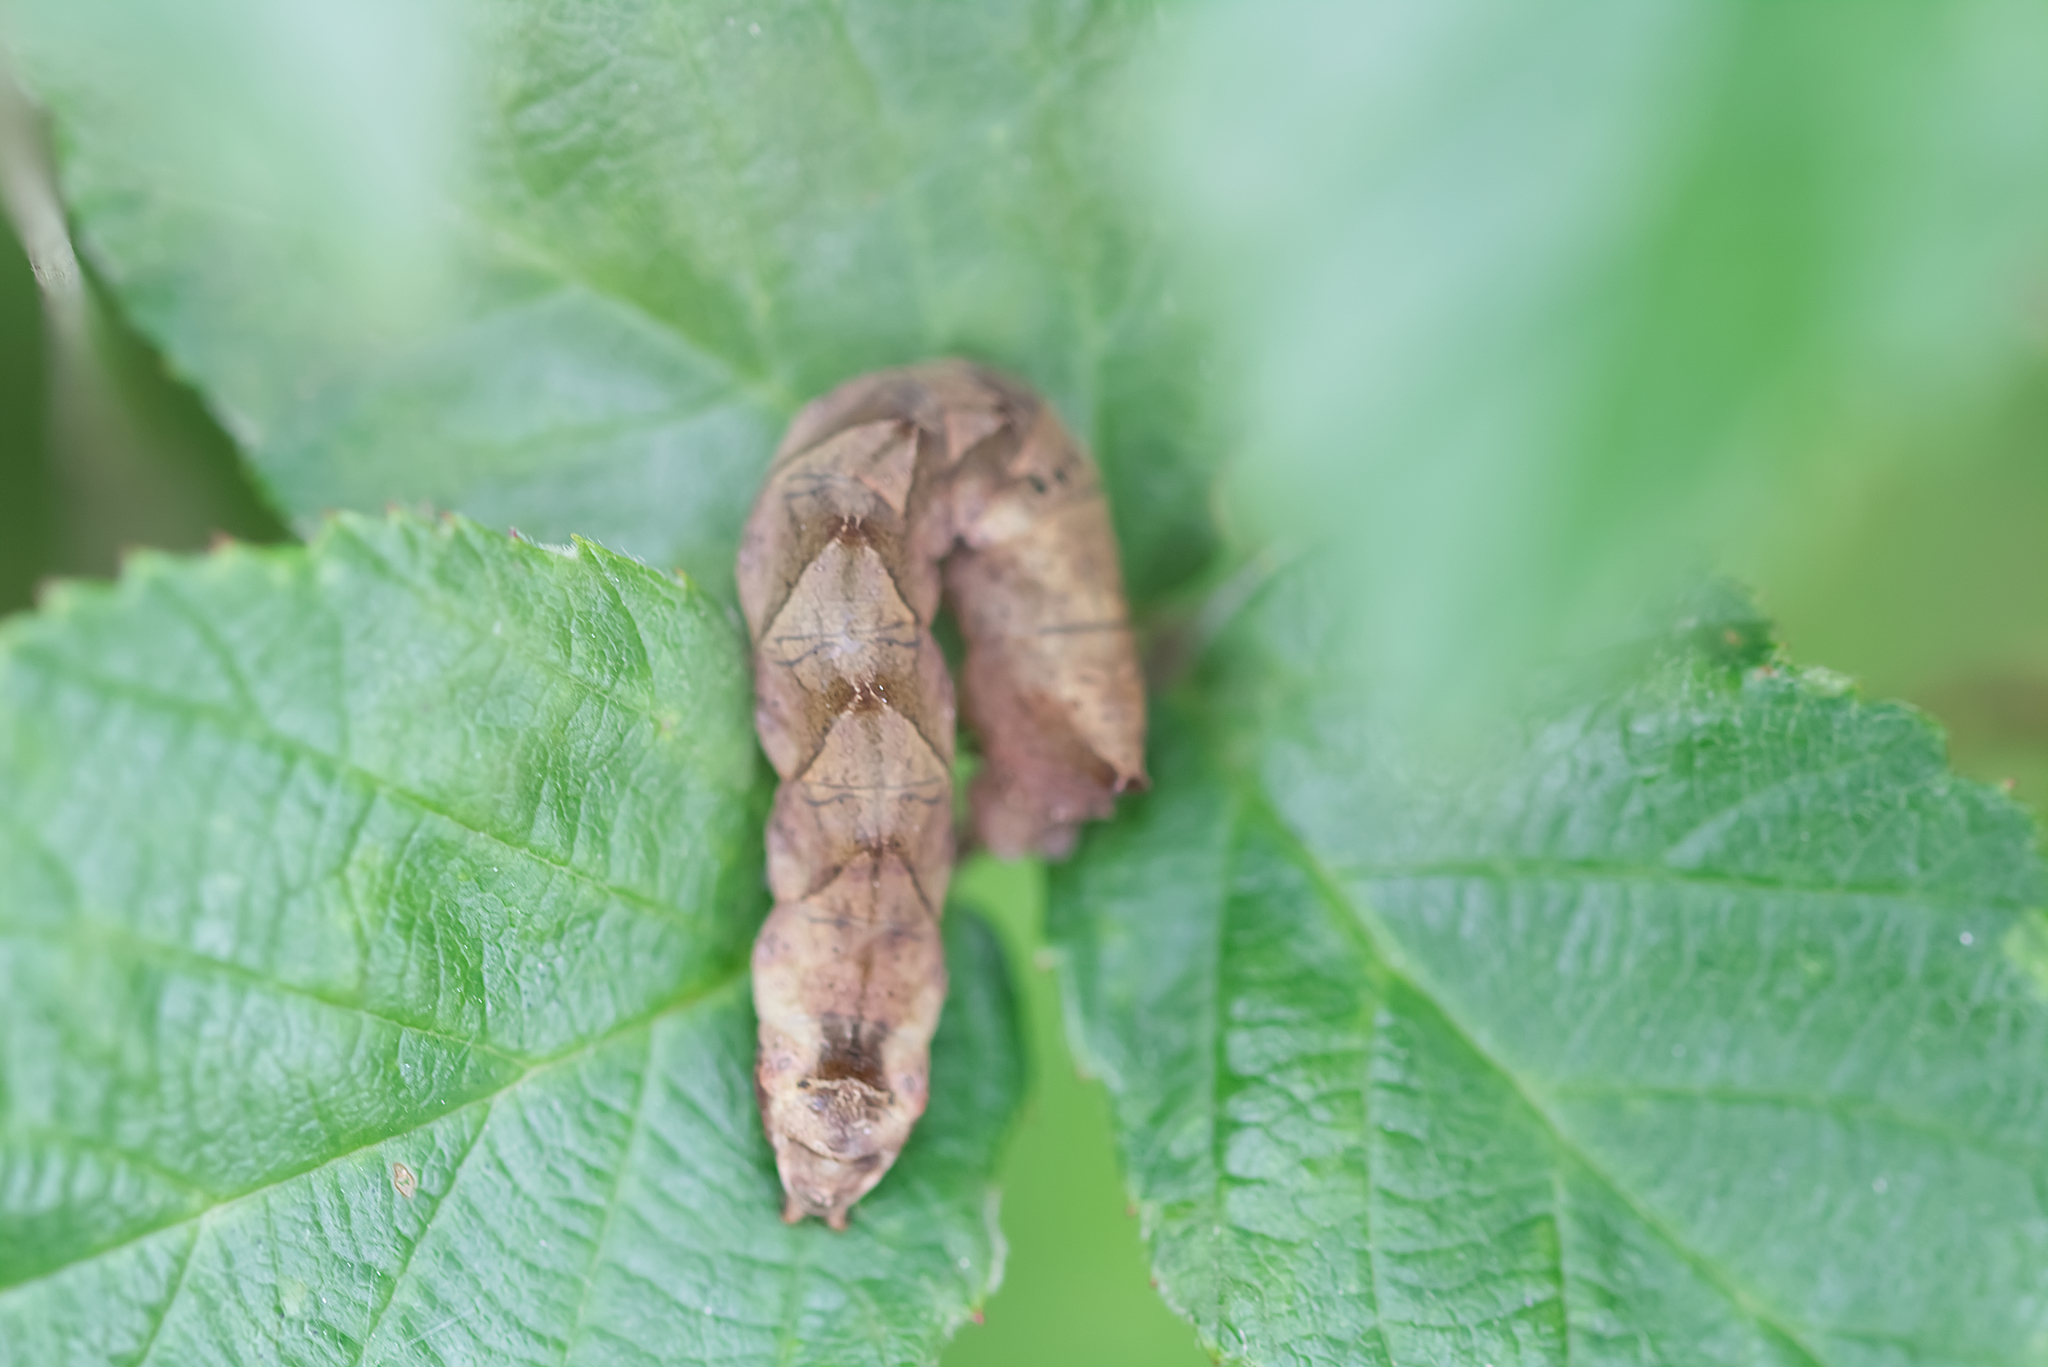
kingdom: Animalia
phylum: Arthropoda
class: Insecta
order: Lepidoptera
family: Drepanidae
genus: Thyatira
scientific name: Thyatira batis
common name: Peach blossom
